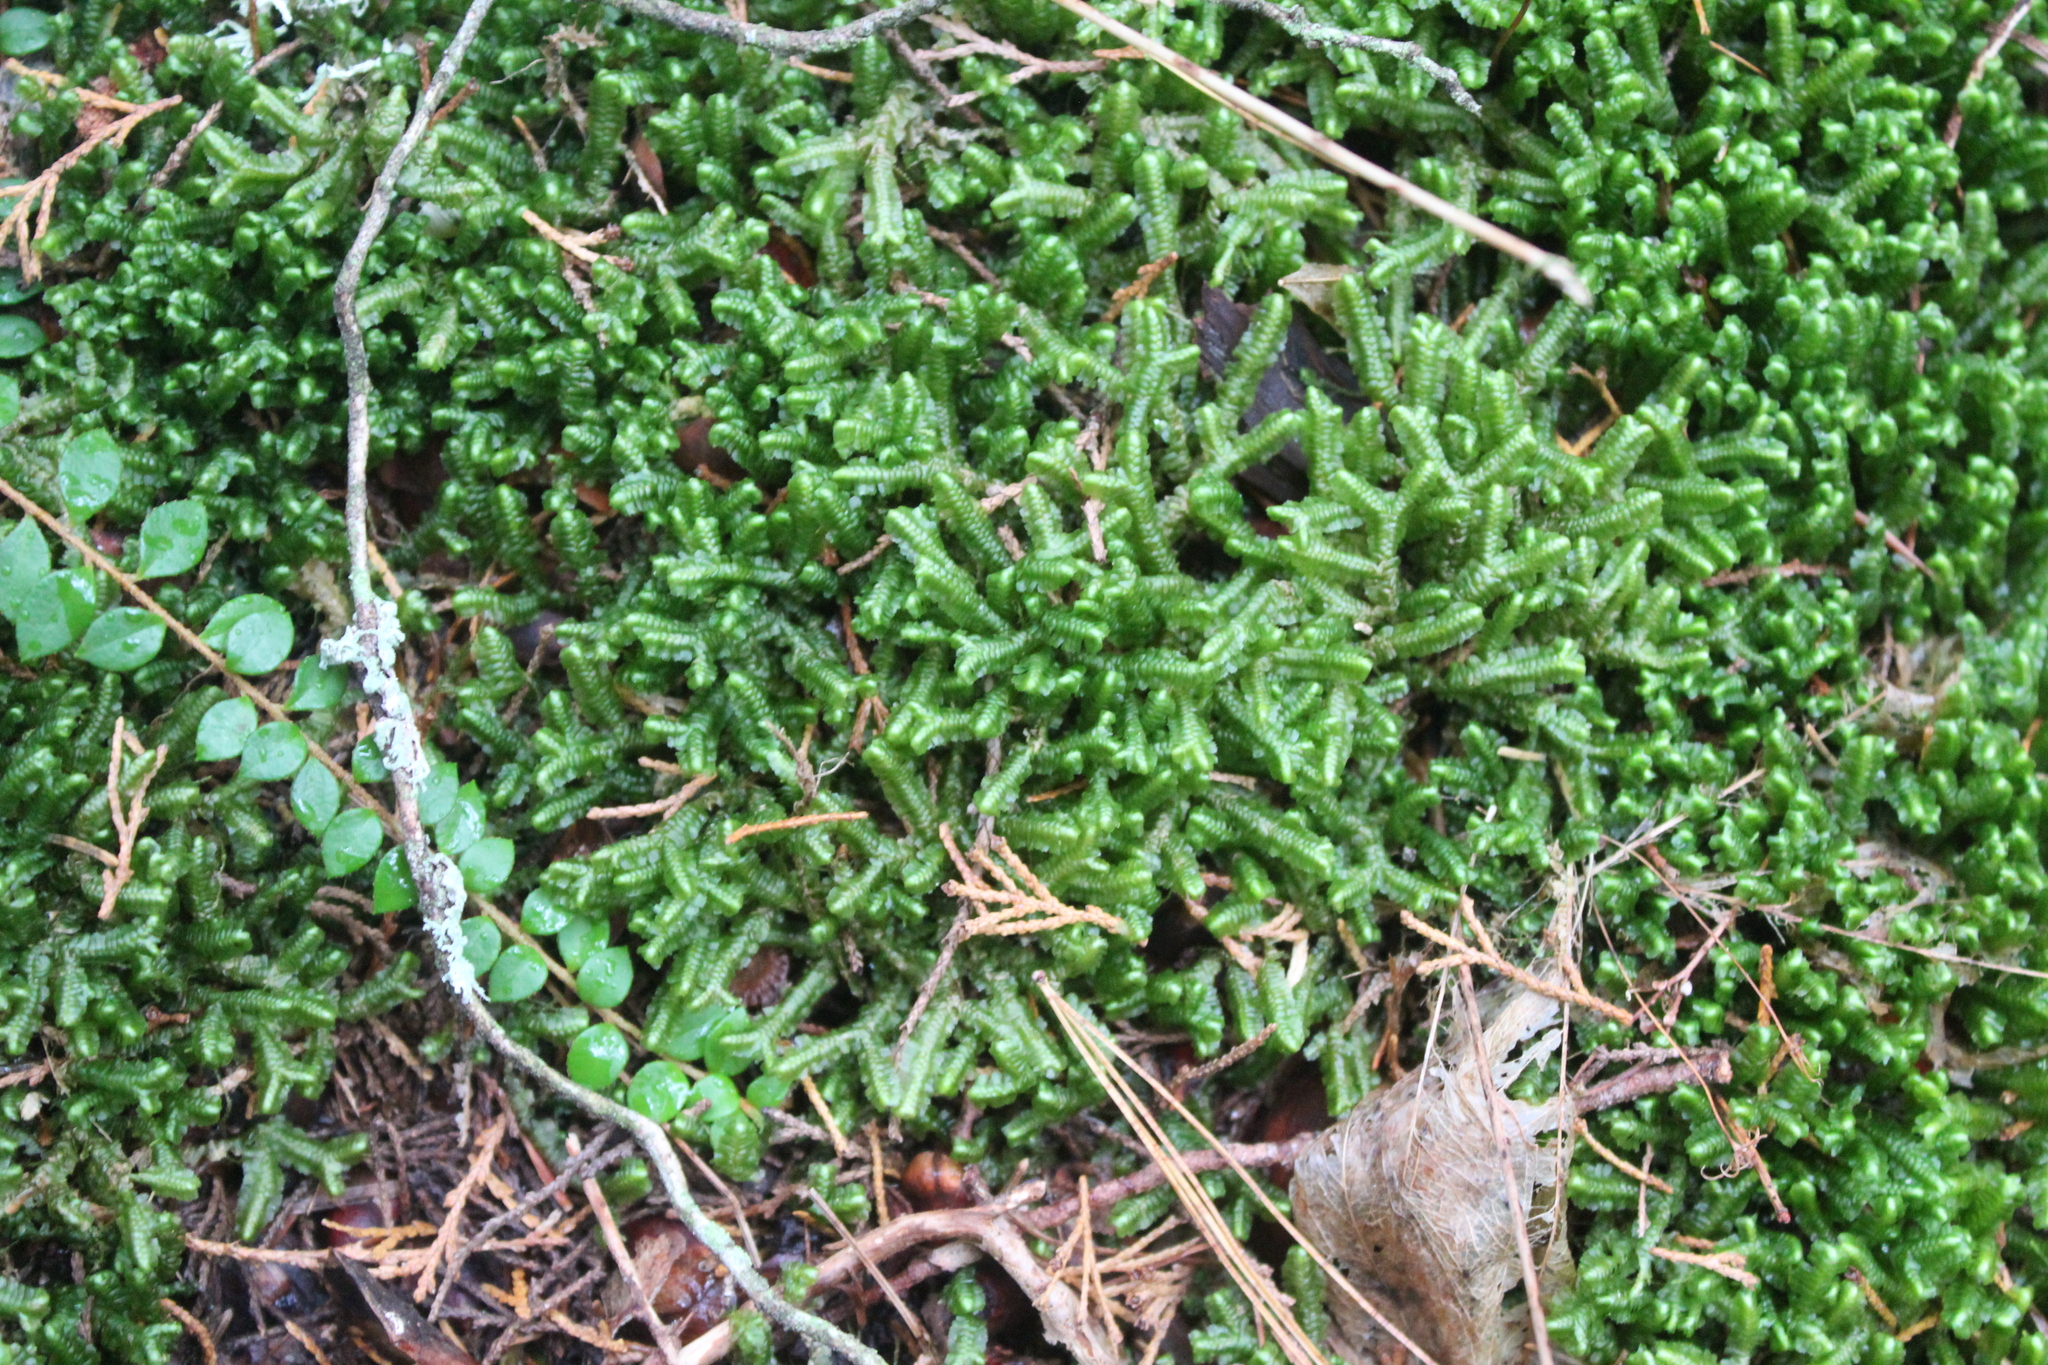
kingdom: Plantae
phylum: Marchantiophyta
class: Jungermanniopsida
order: Jungermanniales
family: Lepidoziaceae
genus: Bazzania
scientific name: Bazzania trilobata
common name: Three-lobed whipwort
